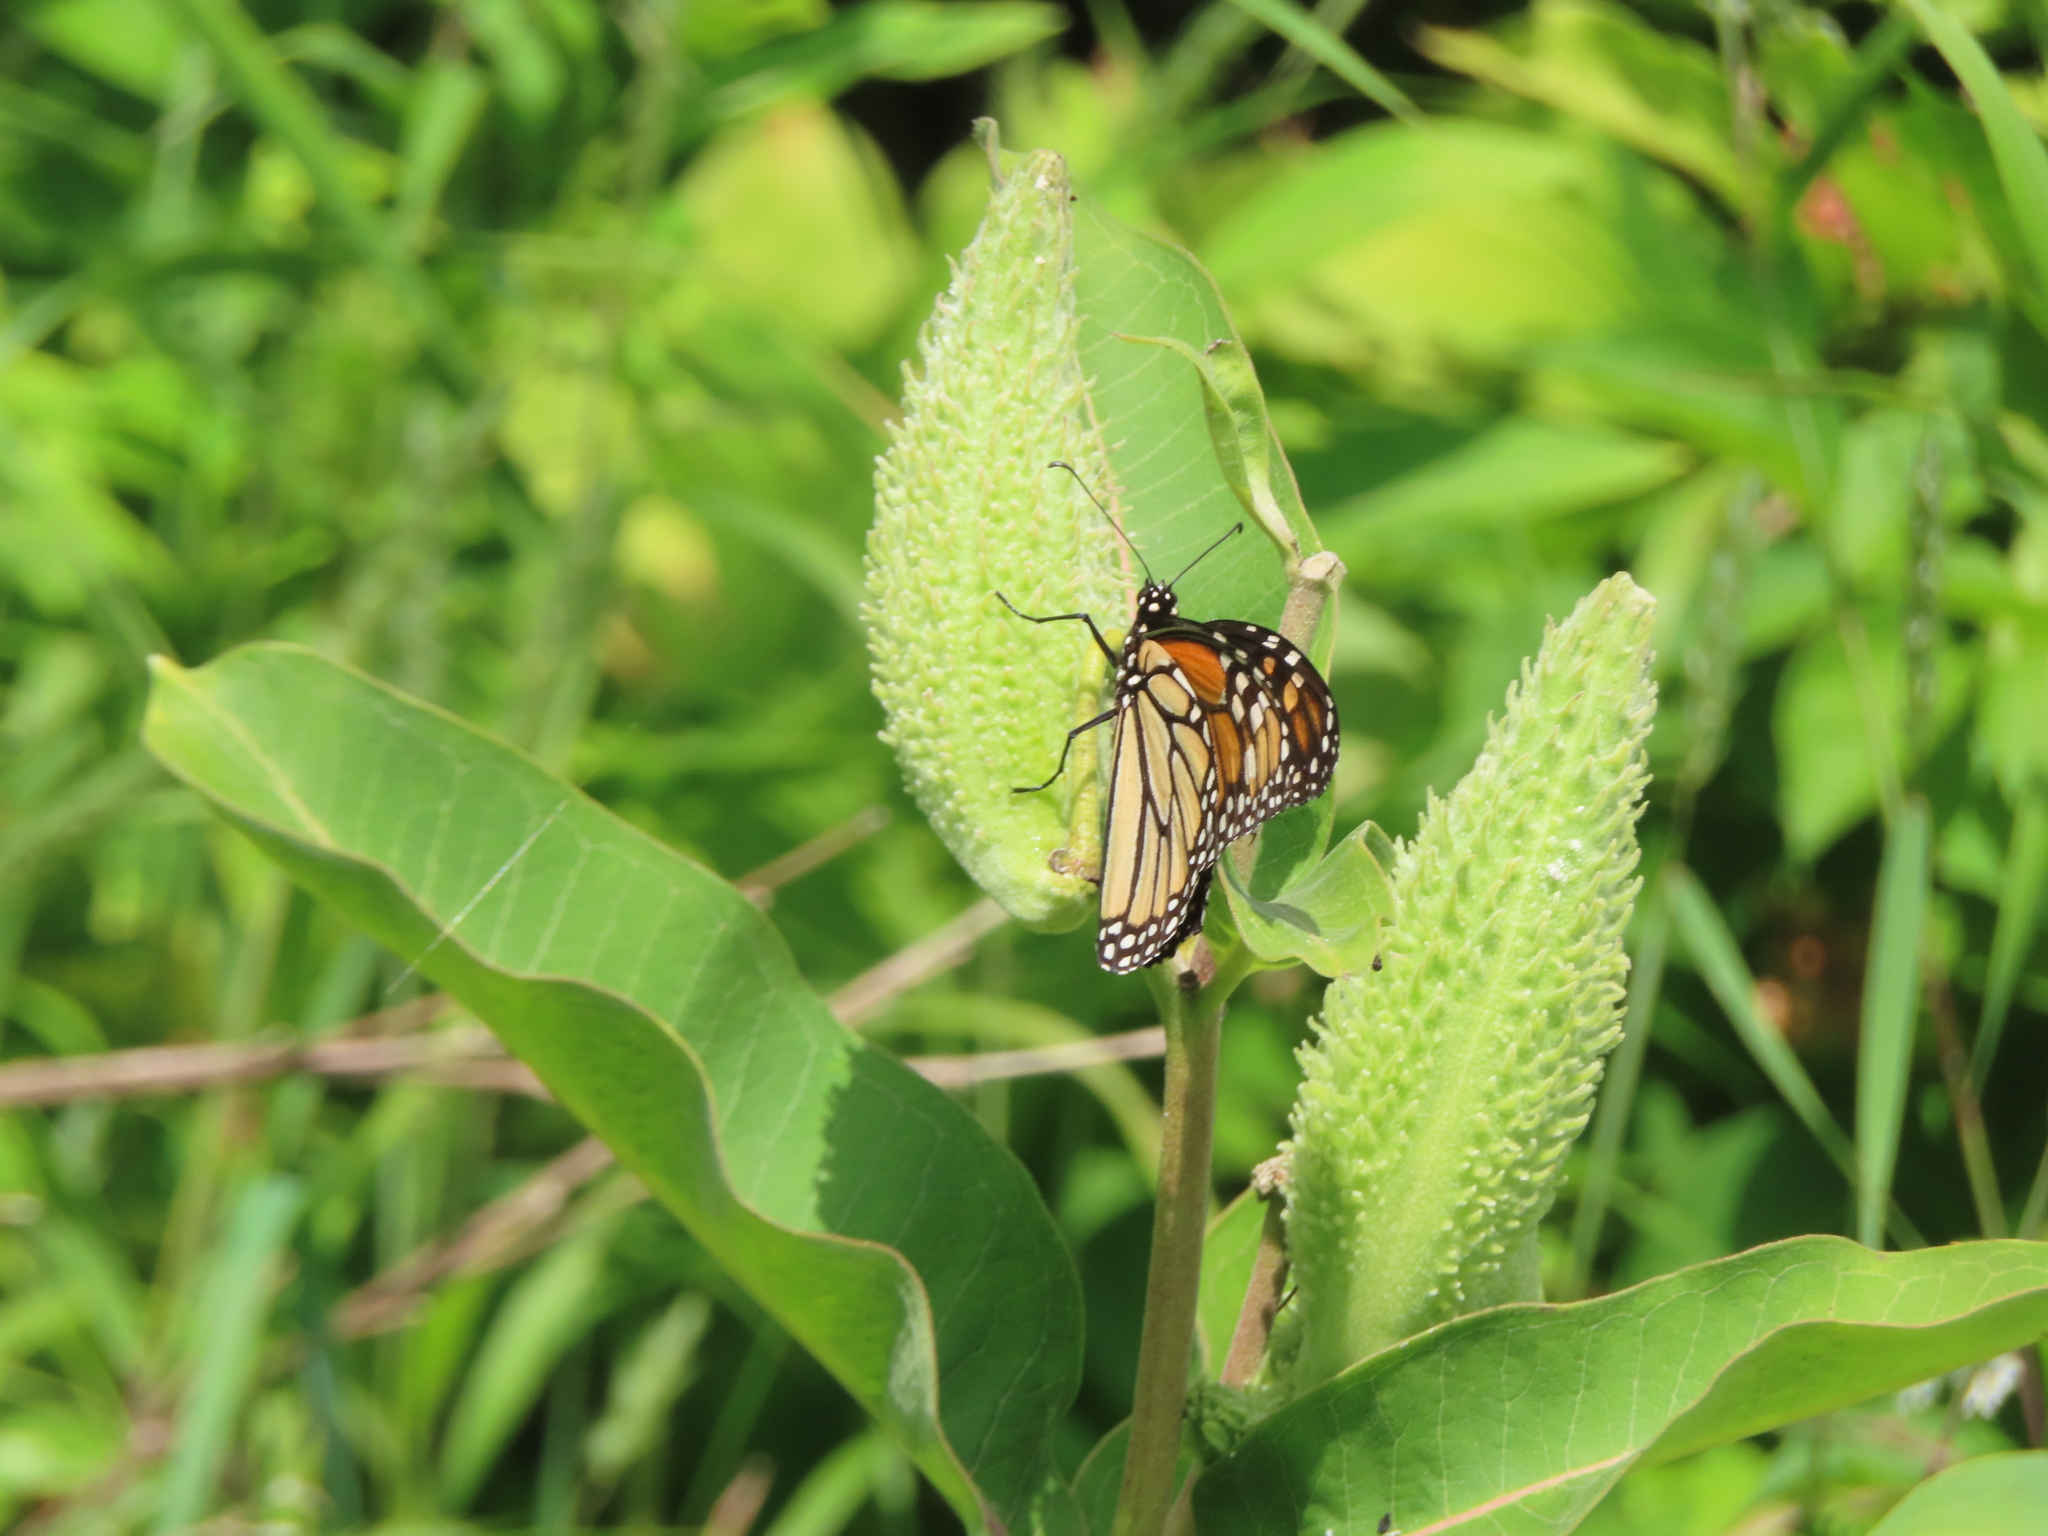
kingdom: Animalia
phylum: Arthropoda
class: Insecta
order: Lepidoptera
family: Nymphalidae
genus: Danaus
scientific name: Danaus plexippus
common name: Monarch
